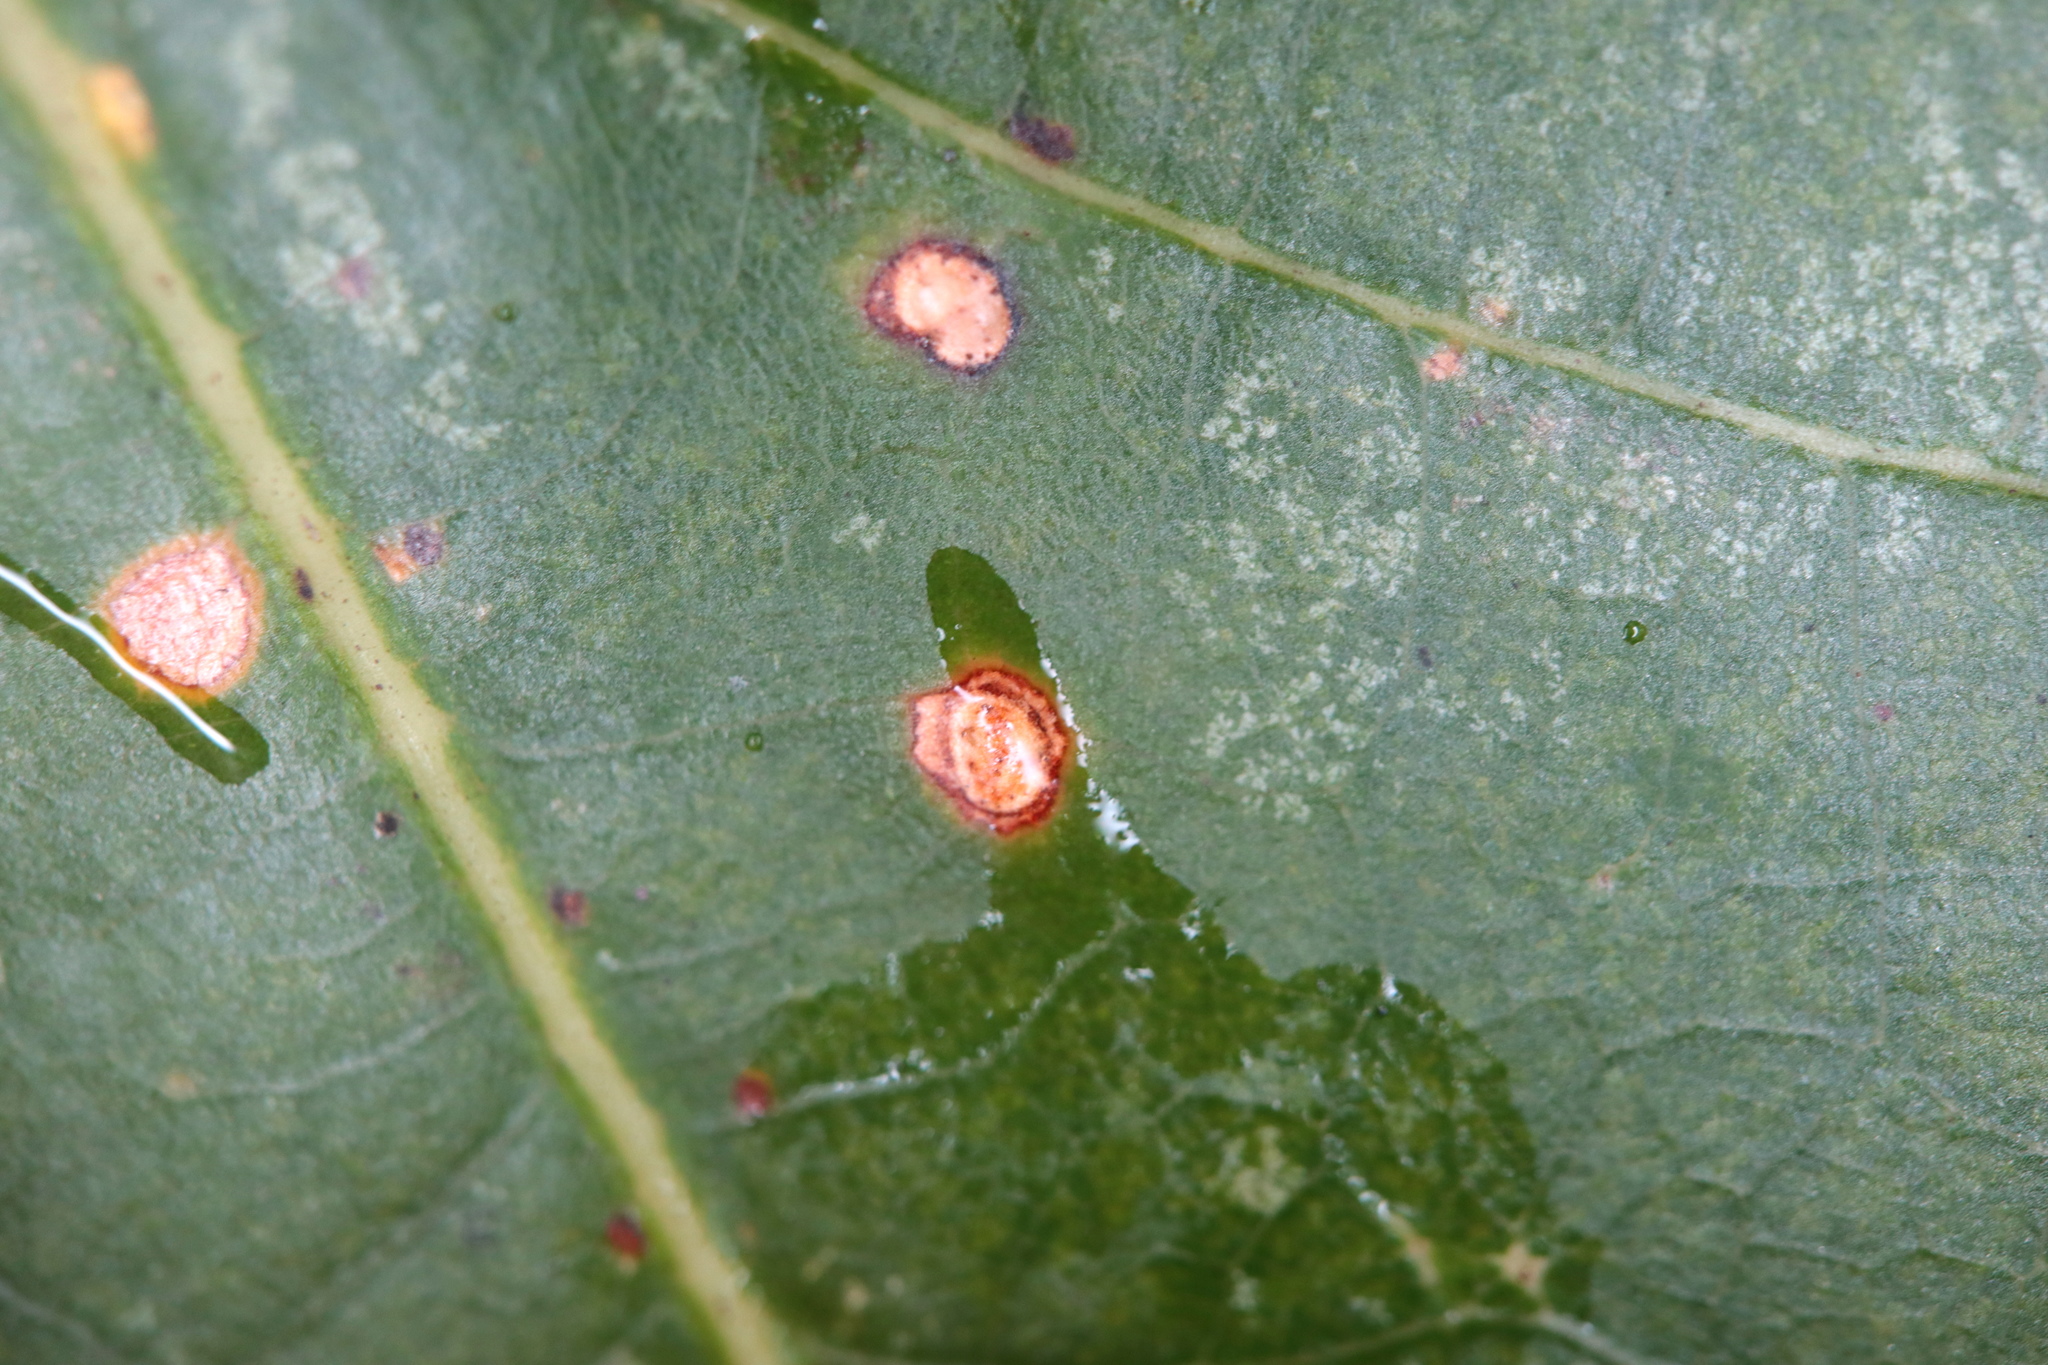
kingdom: Animalia
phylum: Arthropoda
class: Insecta
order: Hymenoptera
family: Cynipidae
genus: Neuroterus
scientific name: Neuroterus quercusverrucarum
